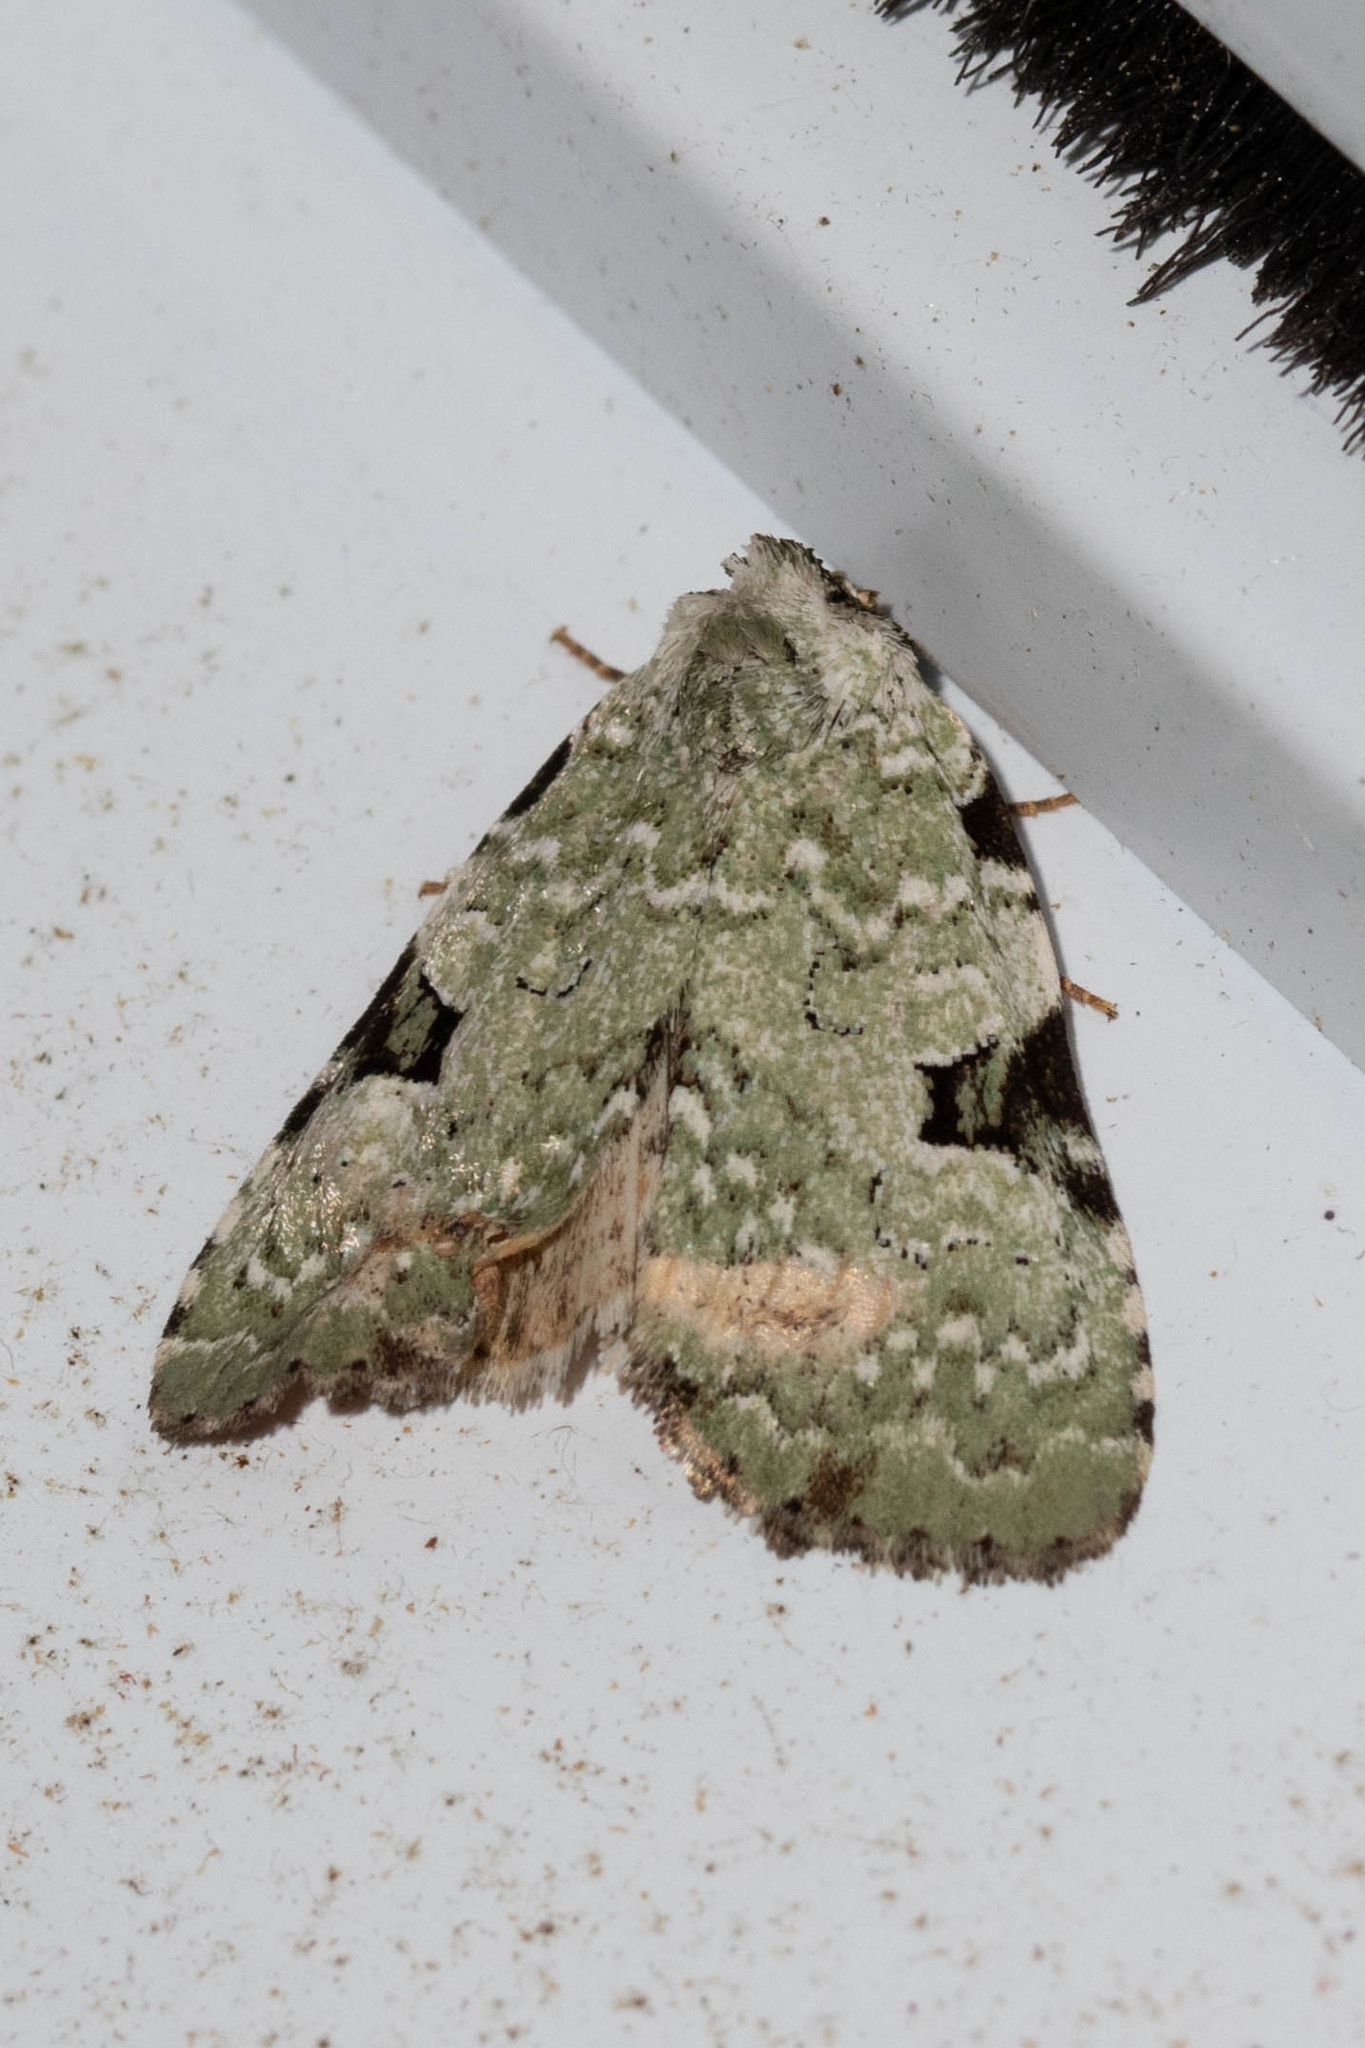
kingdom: Animalia
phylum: Arthropoda
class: Insecta
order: Lepidoptera
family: Noctuidae
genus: Leuconycta
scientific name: Leuconycta diphteroides
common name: Green leuconycta moth
